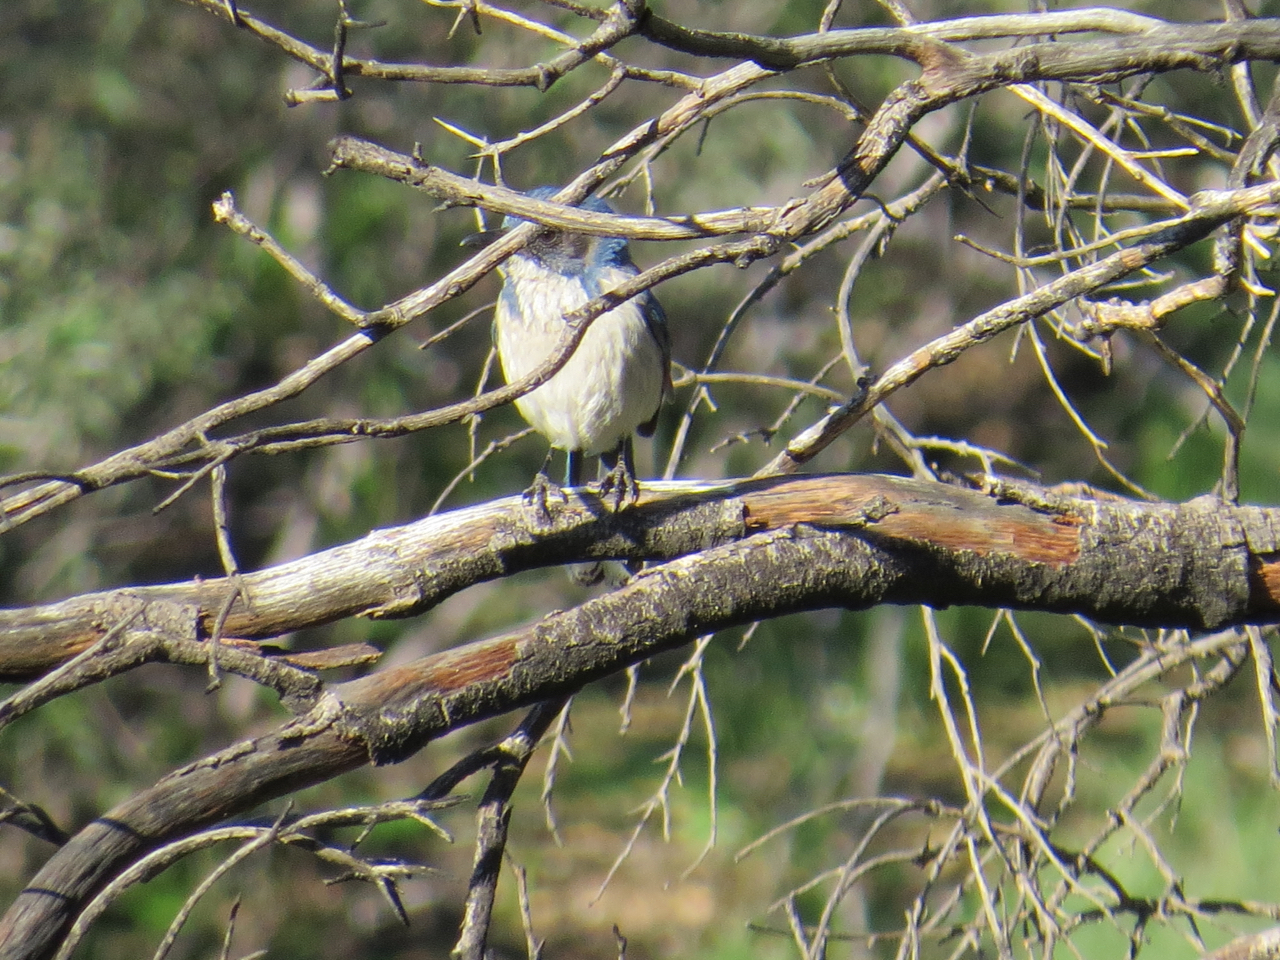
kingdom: Animalia
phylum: Chordata
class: Aves
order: Passeriformes
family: Corvidae
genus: Aphelocoma
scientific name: Aphelocoma californica
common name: California scrub-jay
